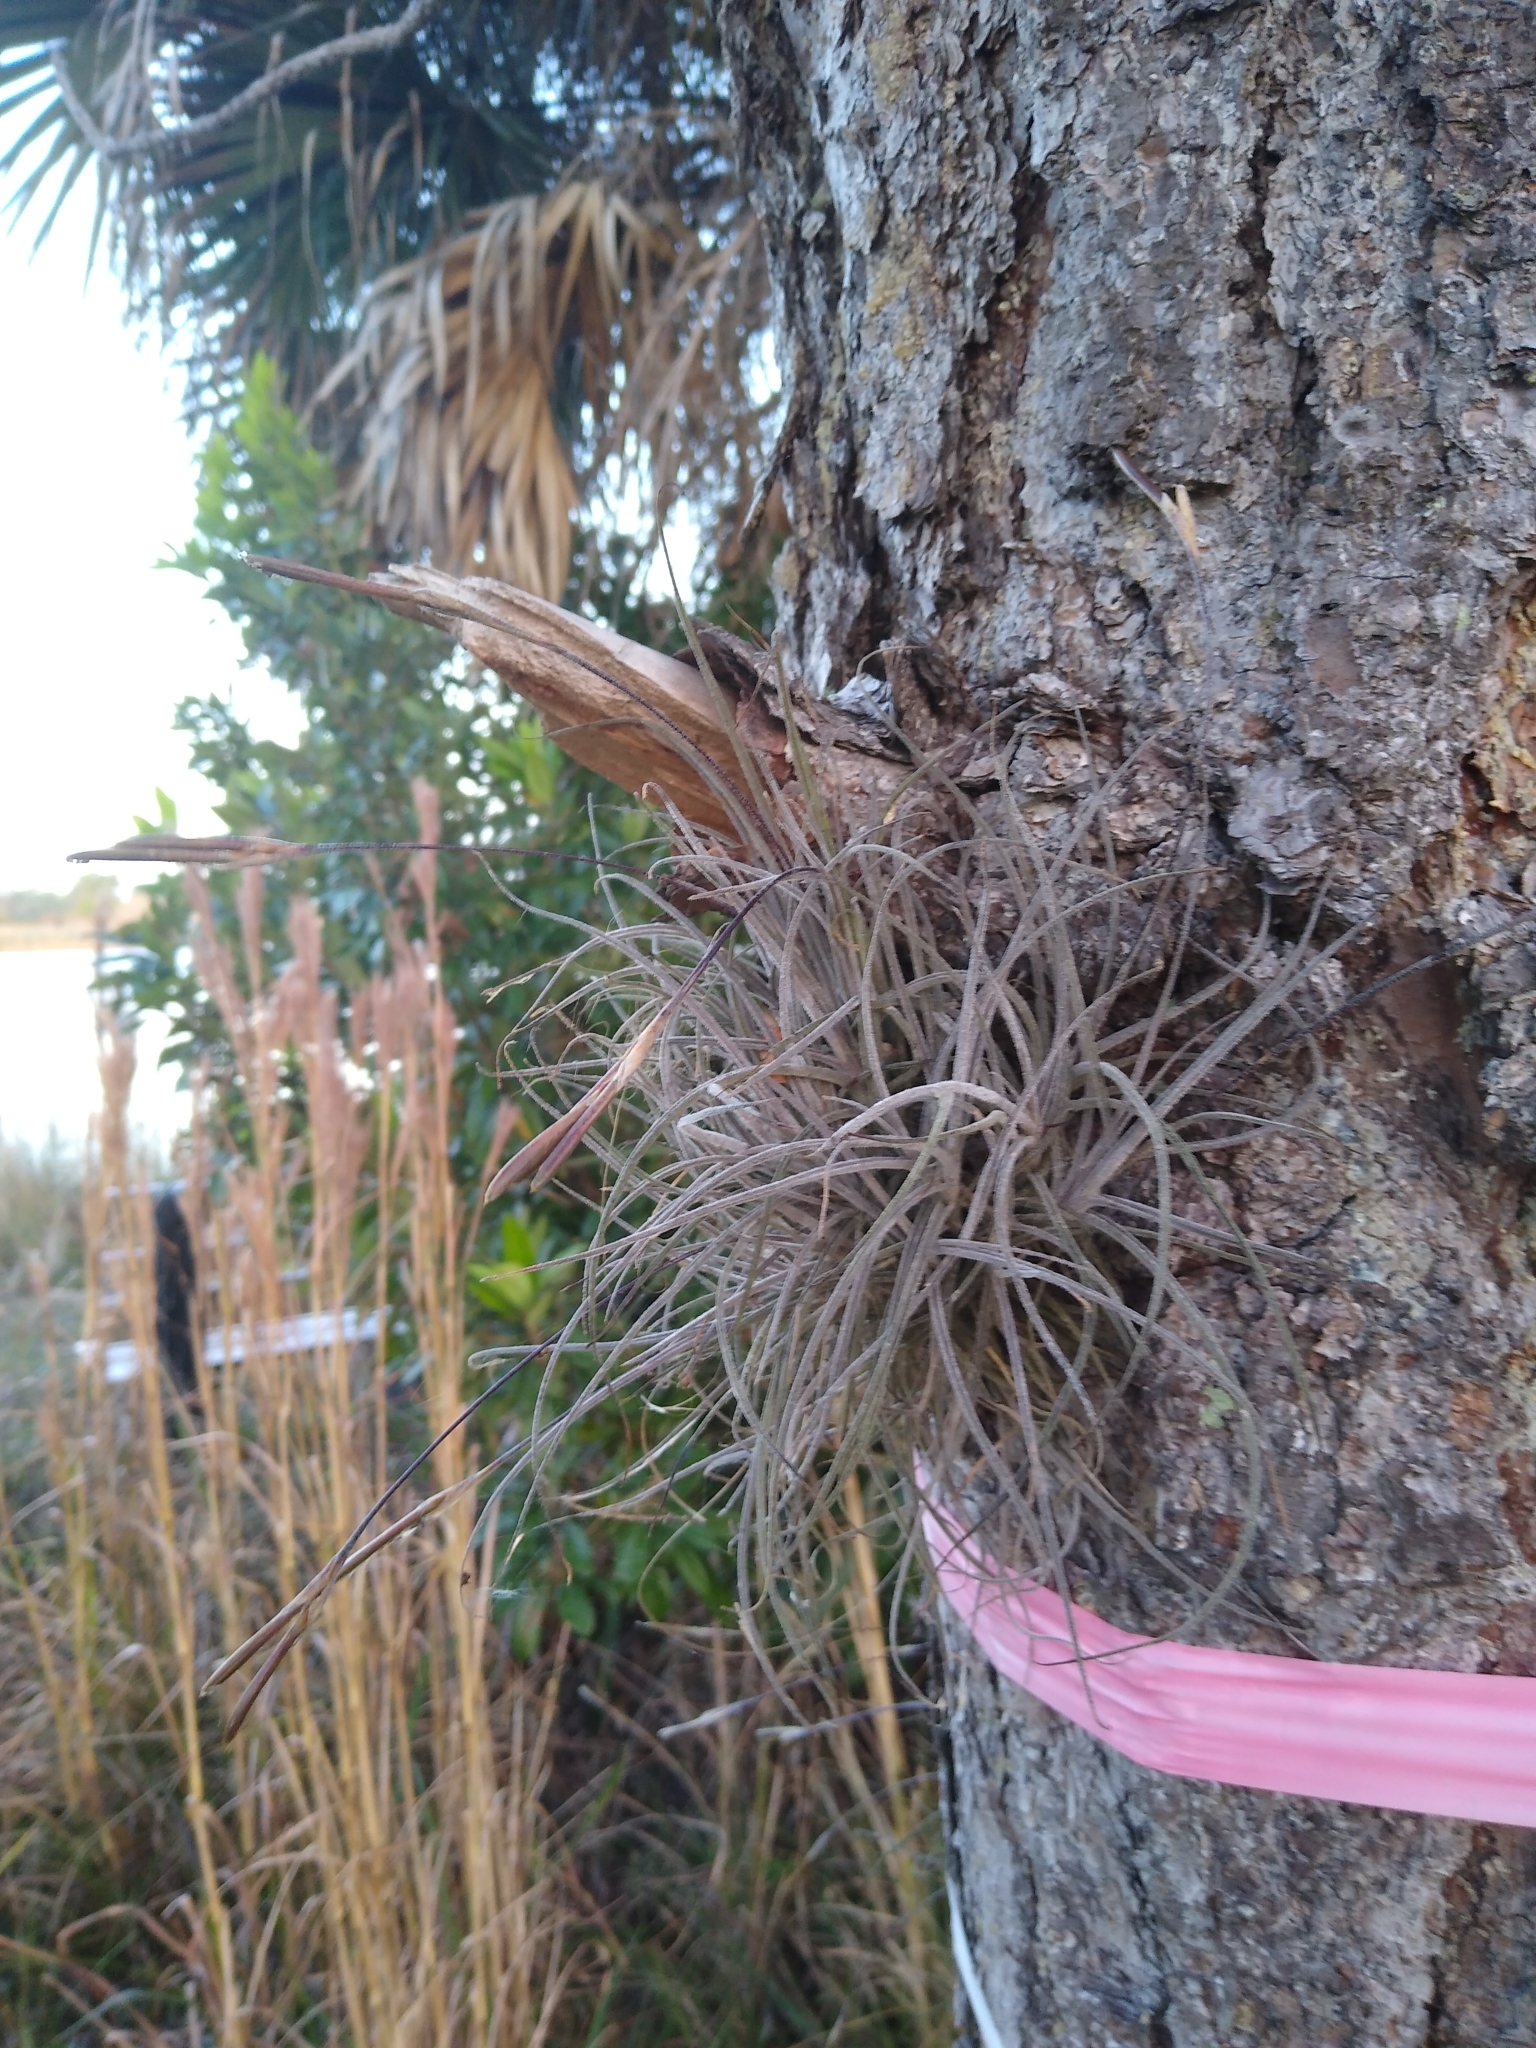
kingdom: Plantae
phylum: Tracheophyta
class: Liliopsida
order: Poales
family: Bromeliaceae
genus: Tillandsia
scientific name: Tillandsia recurvata
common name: Small ballmoss
